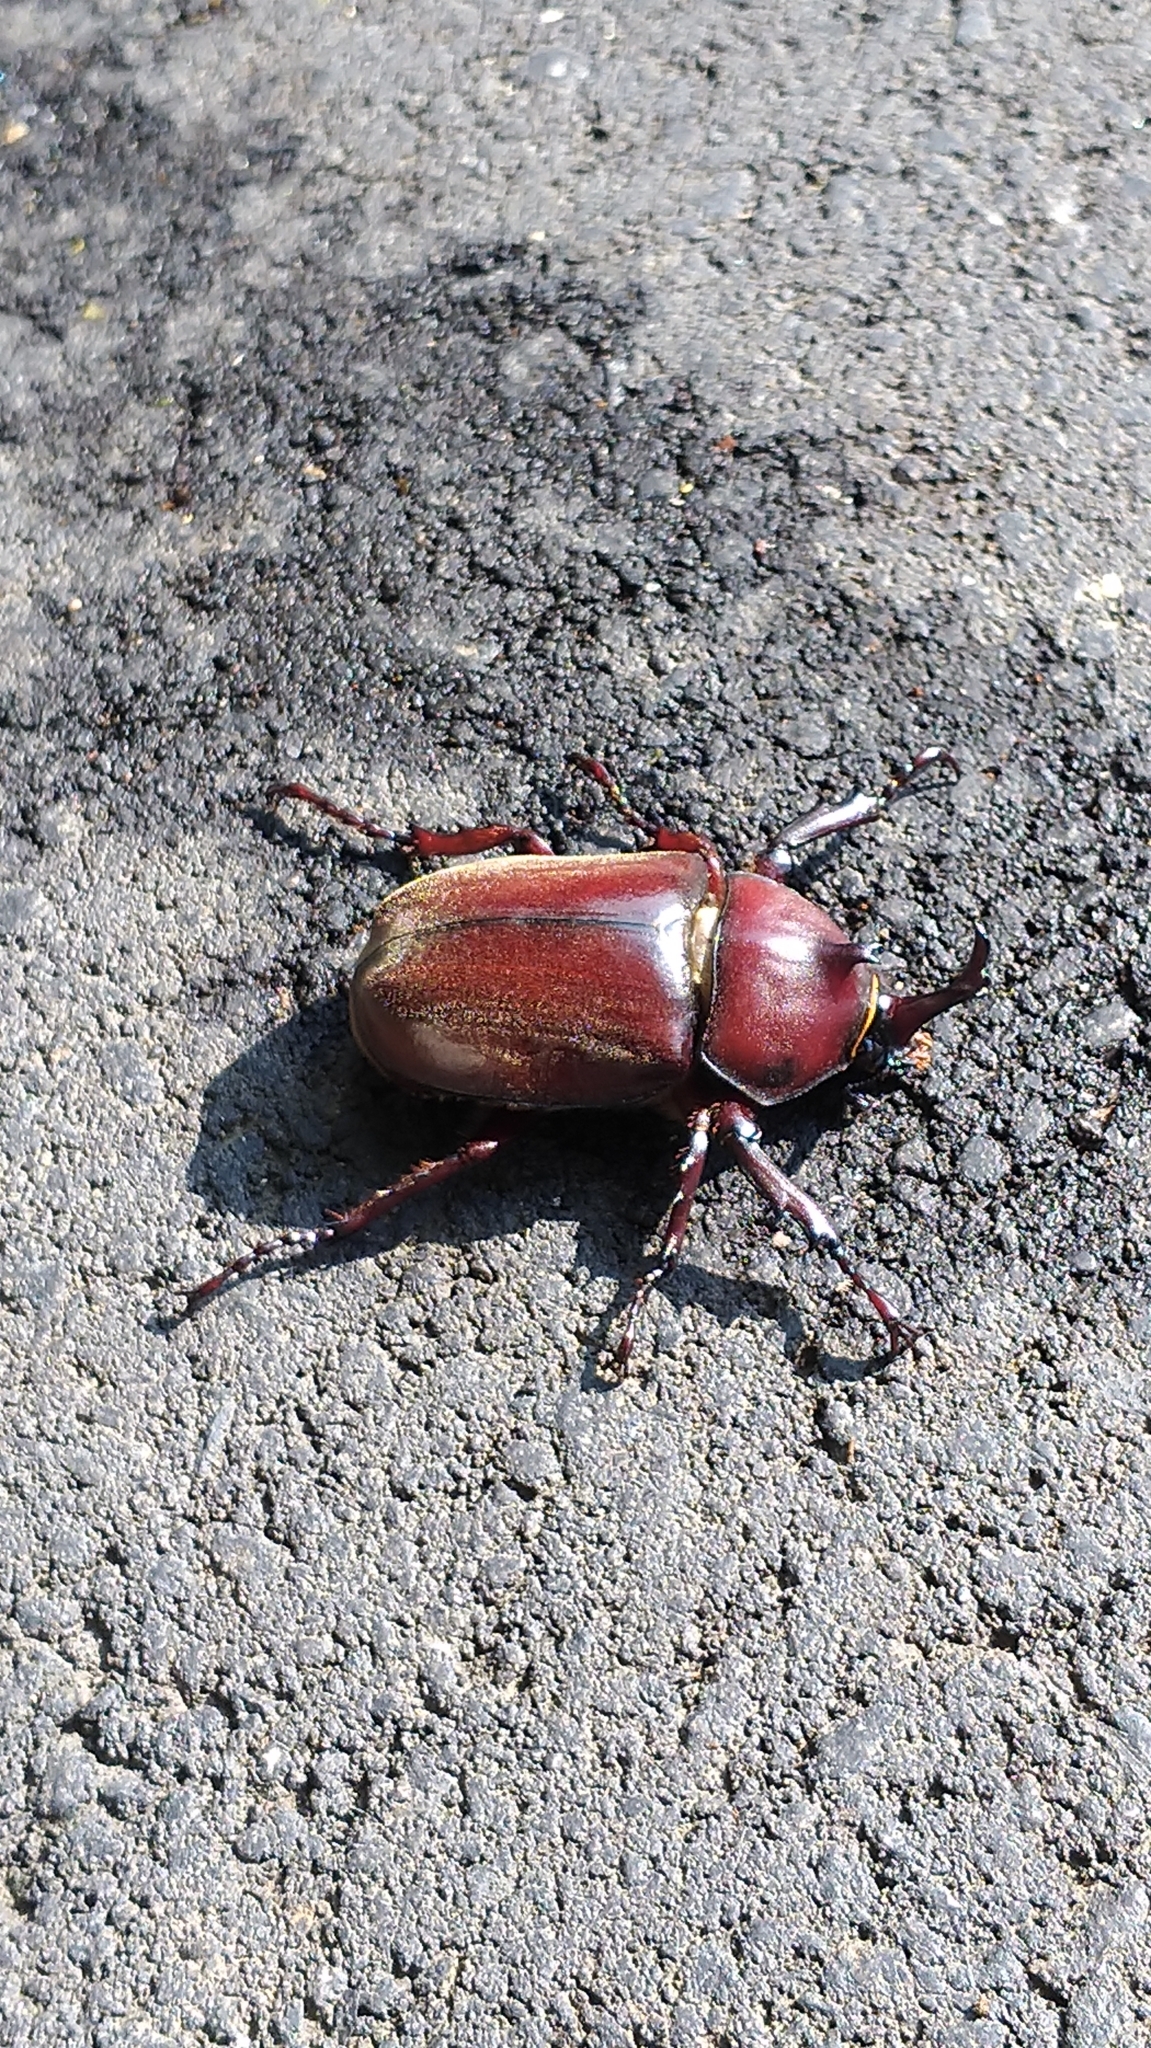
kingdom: Animalia
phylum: Arthropoda
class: Insecta
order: Coleoptera
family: Scarabaeidae
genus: Trypoxylus
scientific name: Trypoxylus dichotomus
